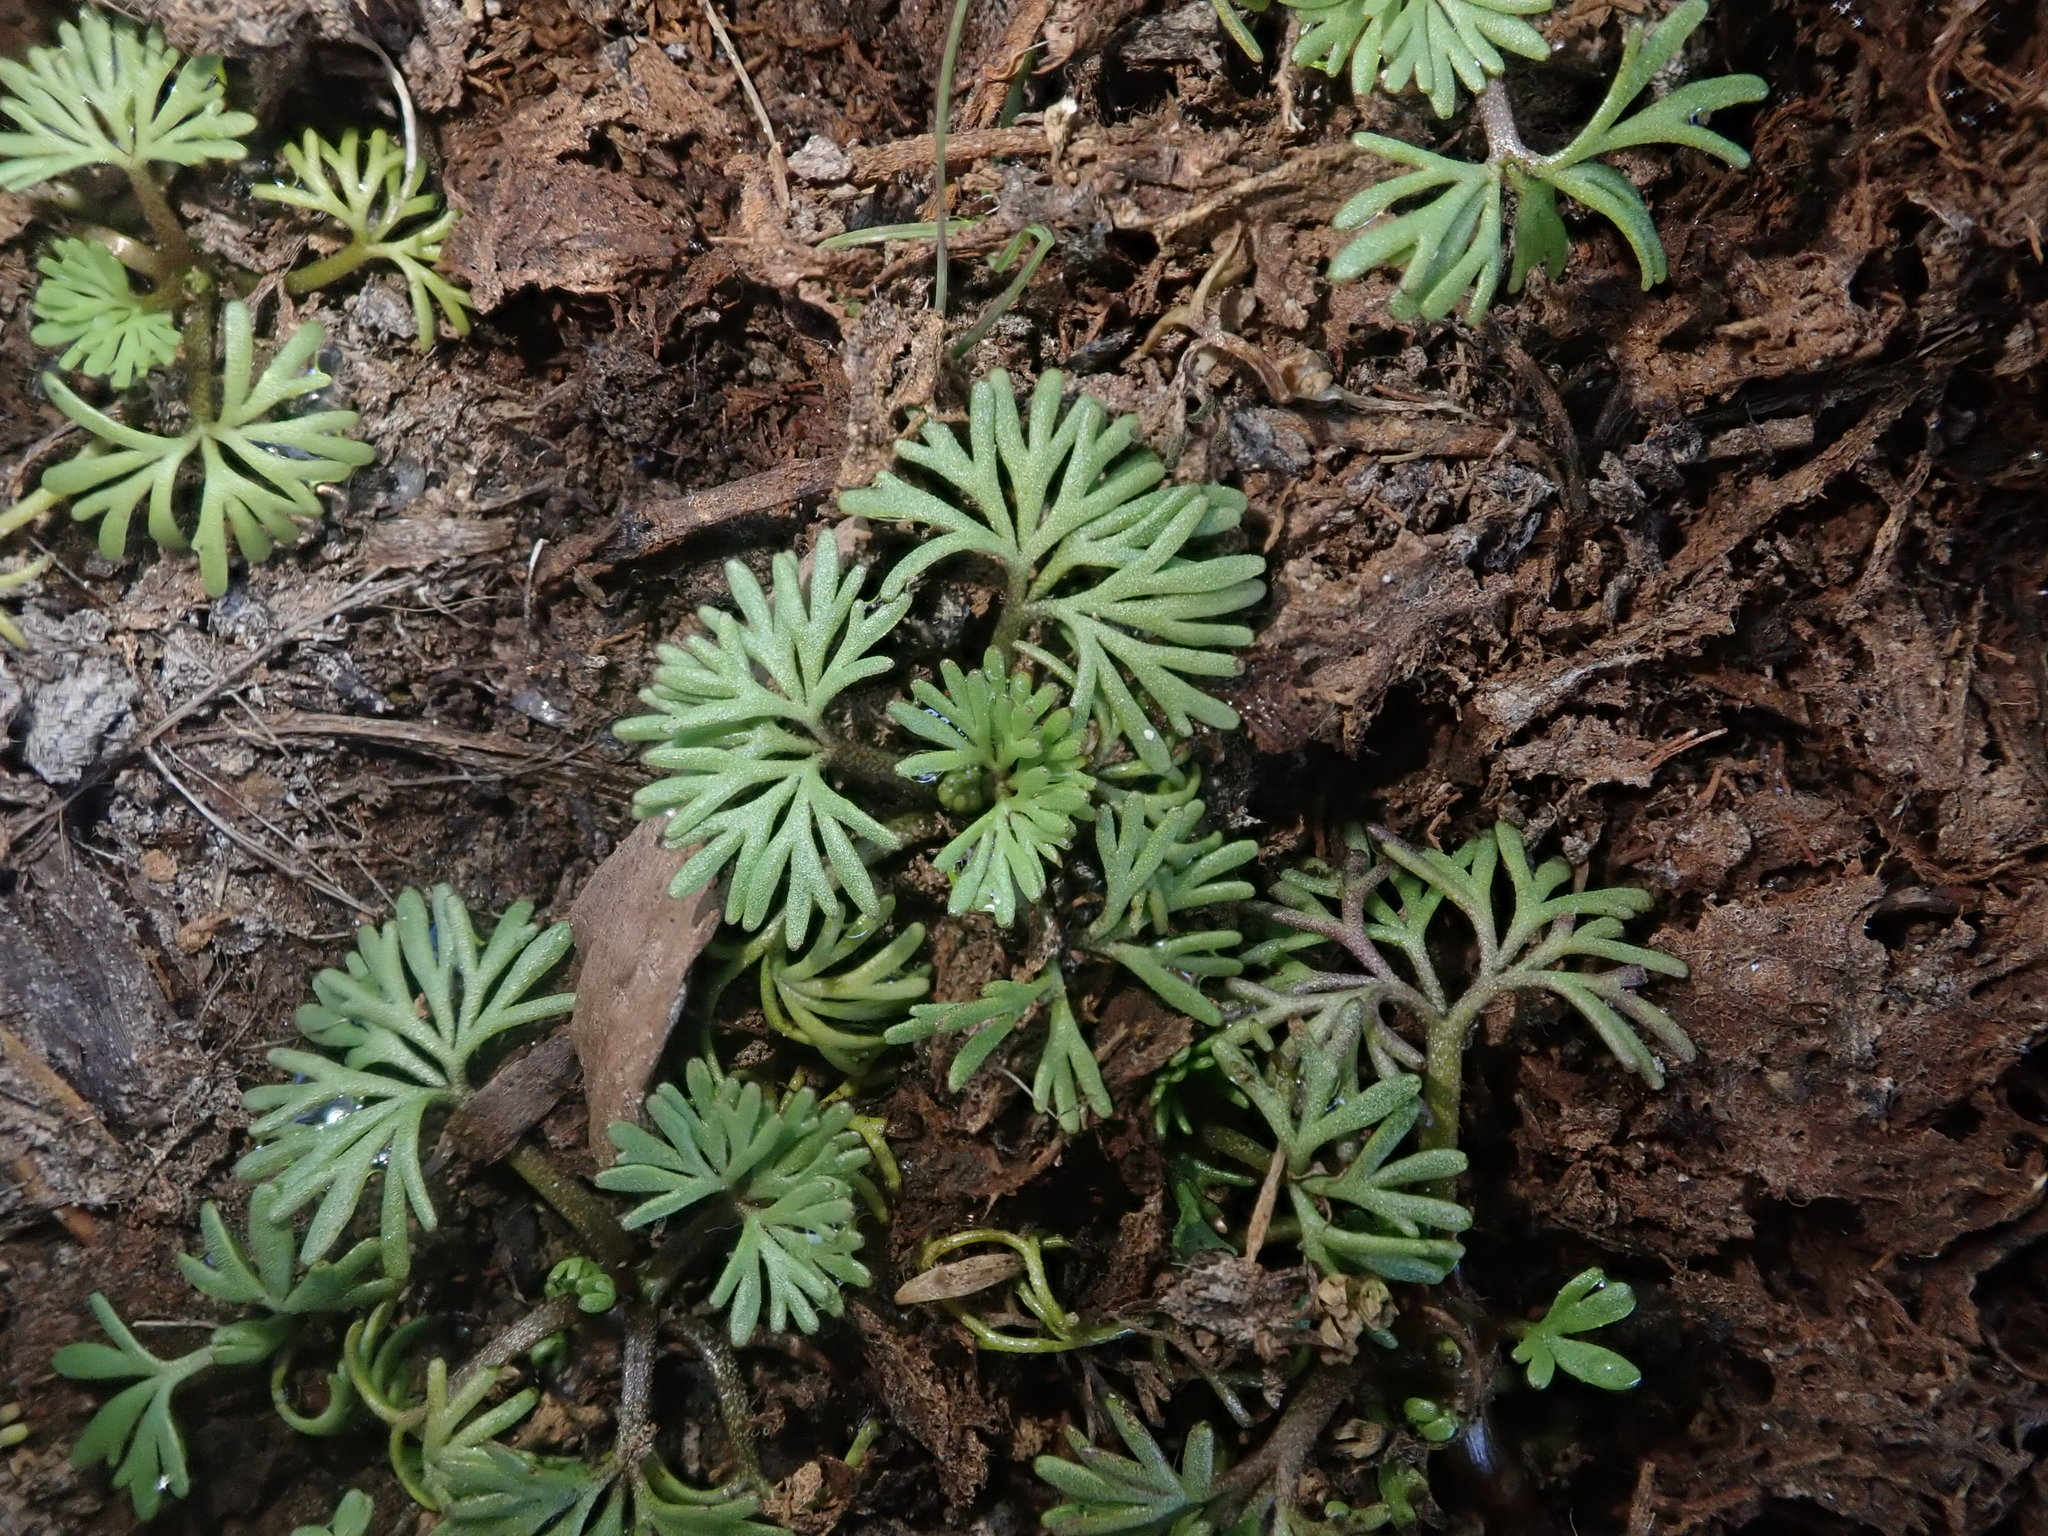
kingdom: Plantae
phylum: Tracheophyta
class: Magnoliopsida
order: Ranunculales
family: Ranunculaceae
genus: Ranunculus
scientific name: Ranunculus aquatilis
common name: Common water-crowfoot
